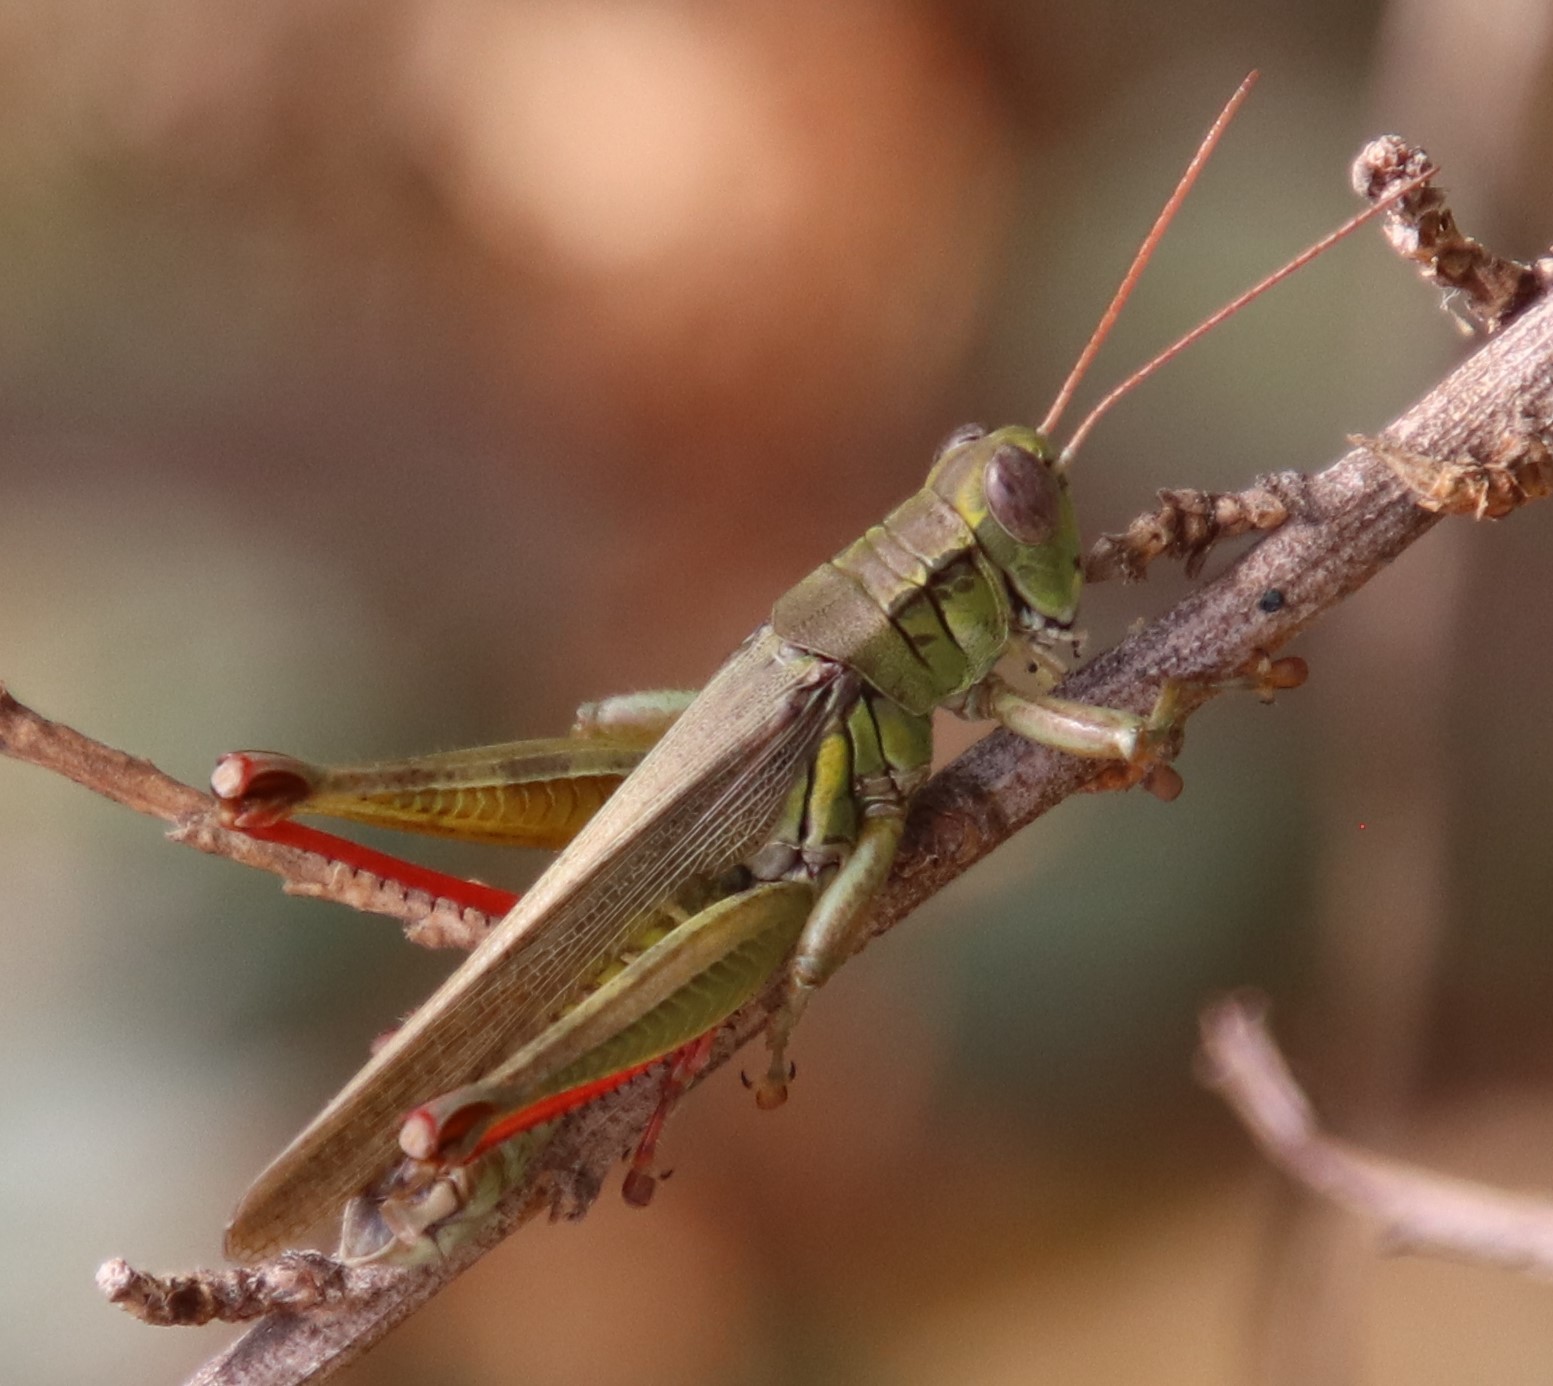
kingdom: Animalia
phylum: Arthropoda
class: Insecta
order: Orthoptera
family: Acrididae
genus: Melanoplus
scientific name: Melanoplus yarrowii
